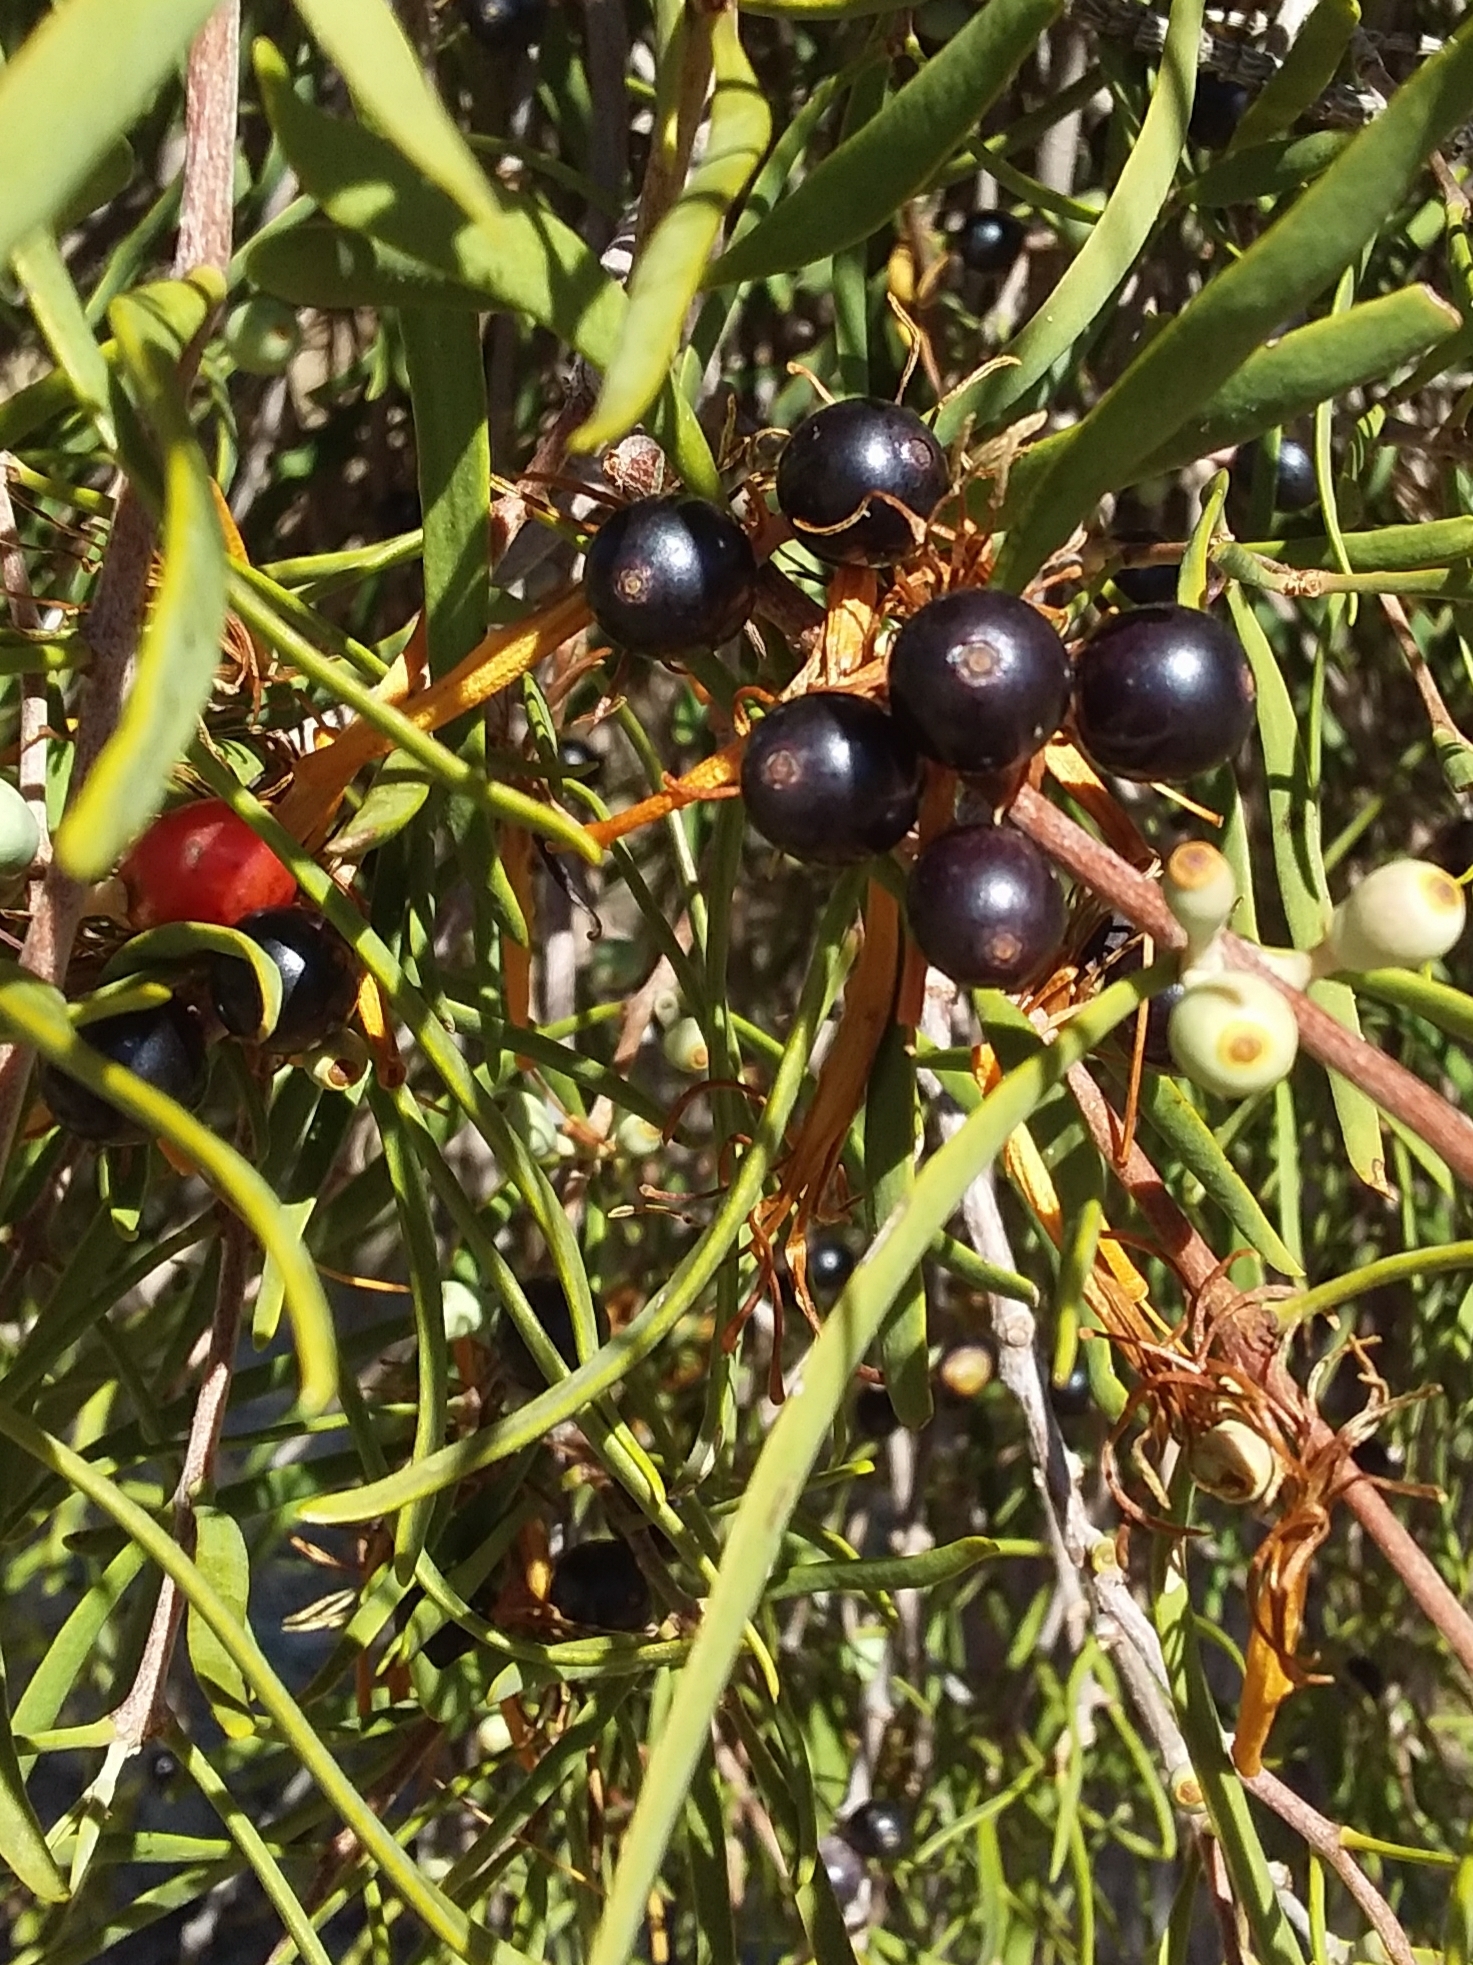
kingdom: Plantae
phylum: Tracheophyta
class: Magnoliopsida
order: Santalales
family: Loranthaceae
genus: Lysiana
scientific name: Lysiana exocarpi
